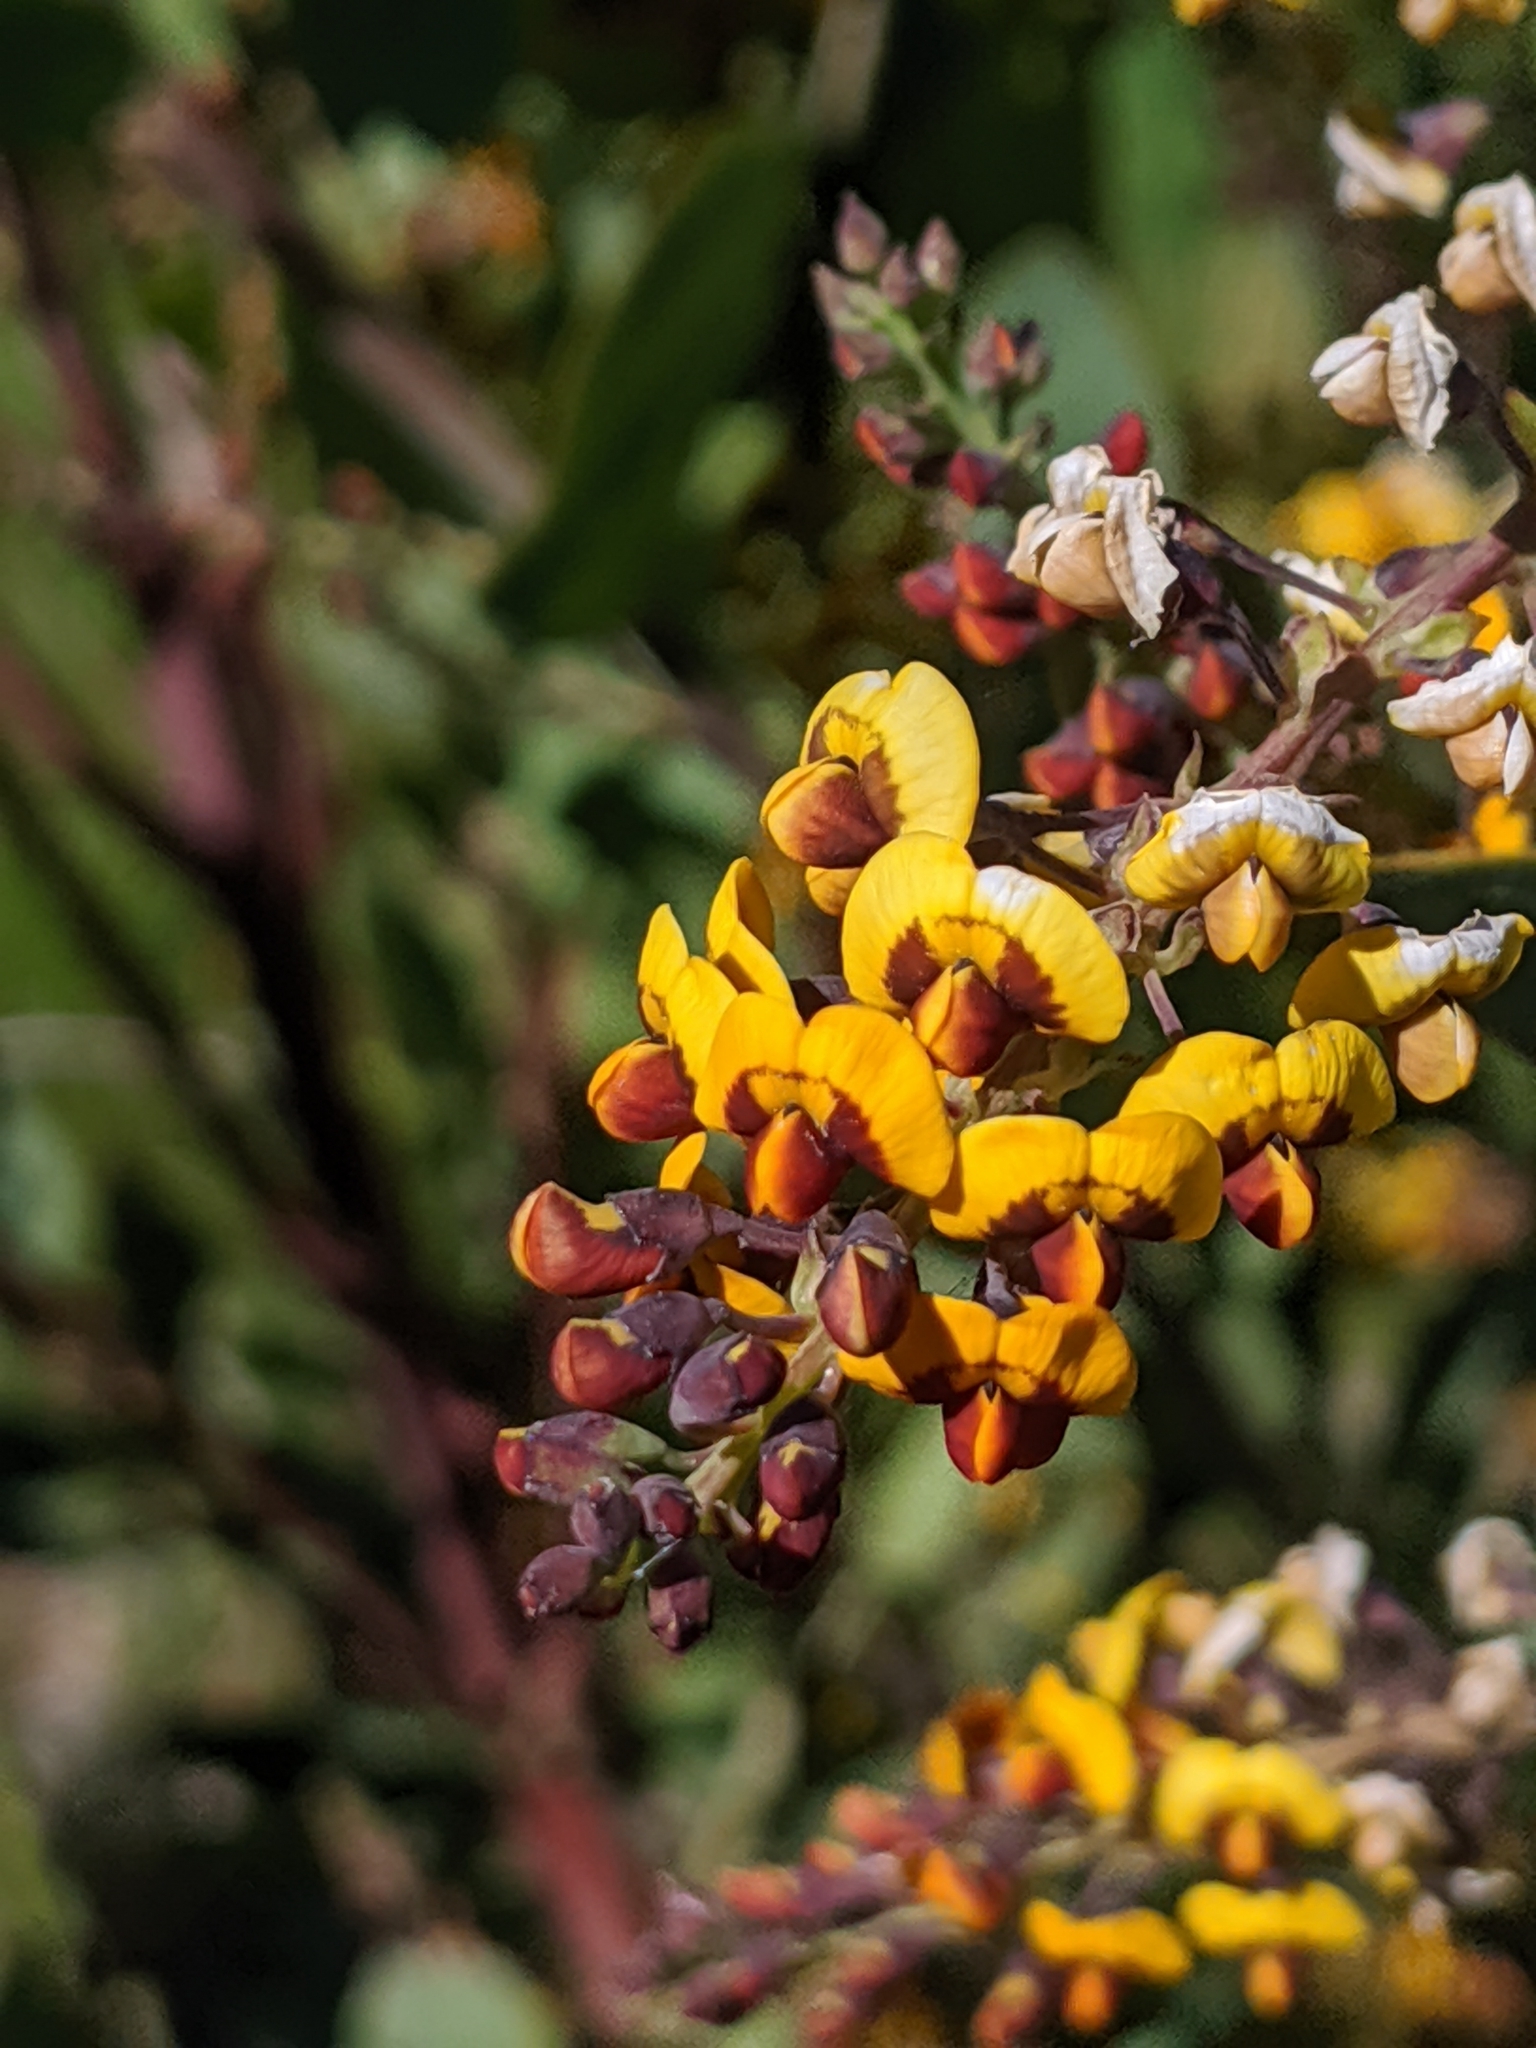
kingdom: Plantae
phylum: Tracheophyta
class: Magnoliopsida
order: Fabales
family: Fabaceae
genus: Daviesia
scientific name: Daviesia latifolia
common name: Hop bitter-pea
